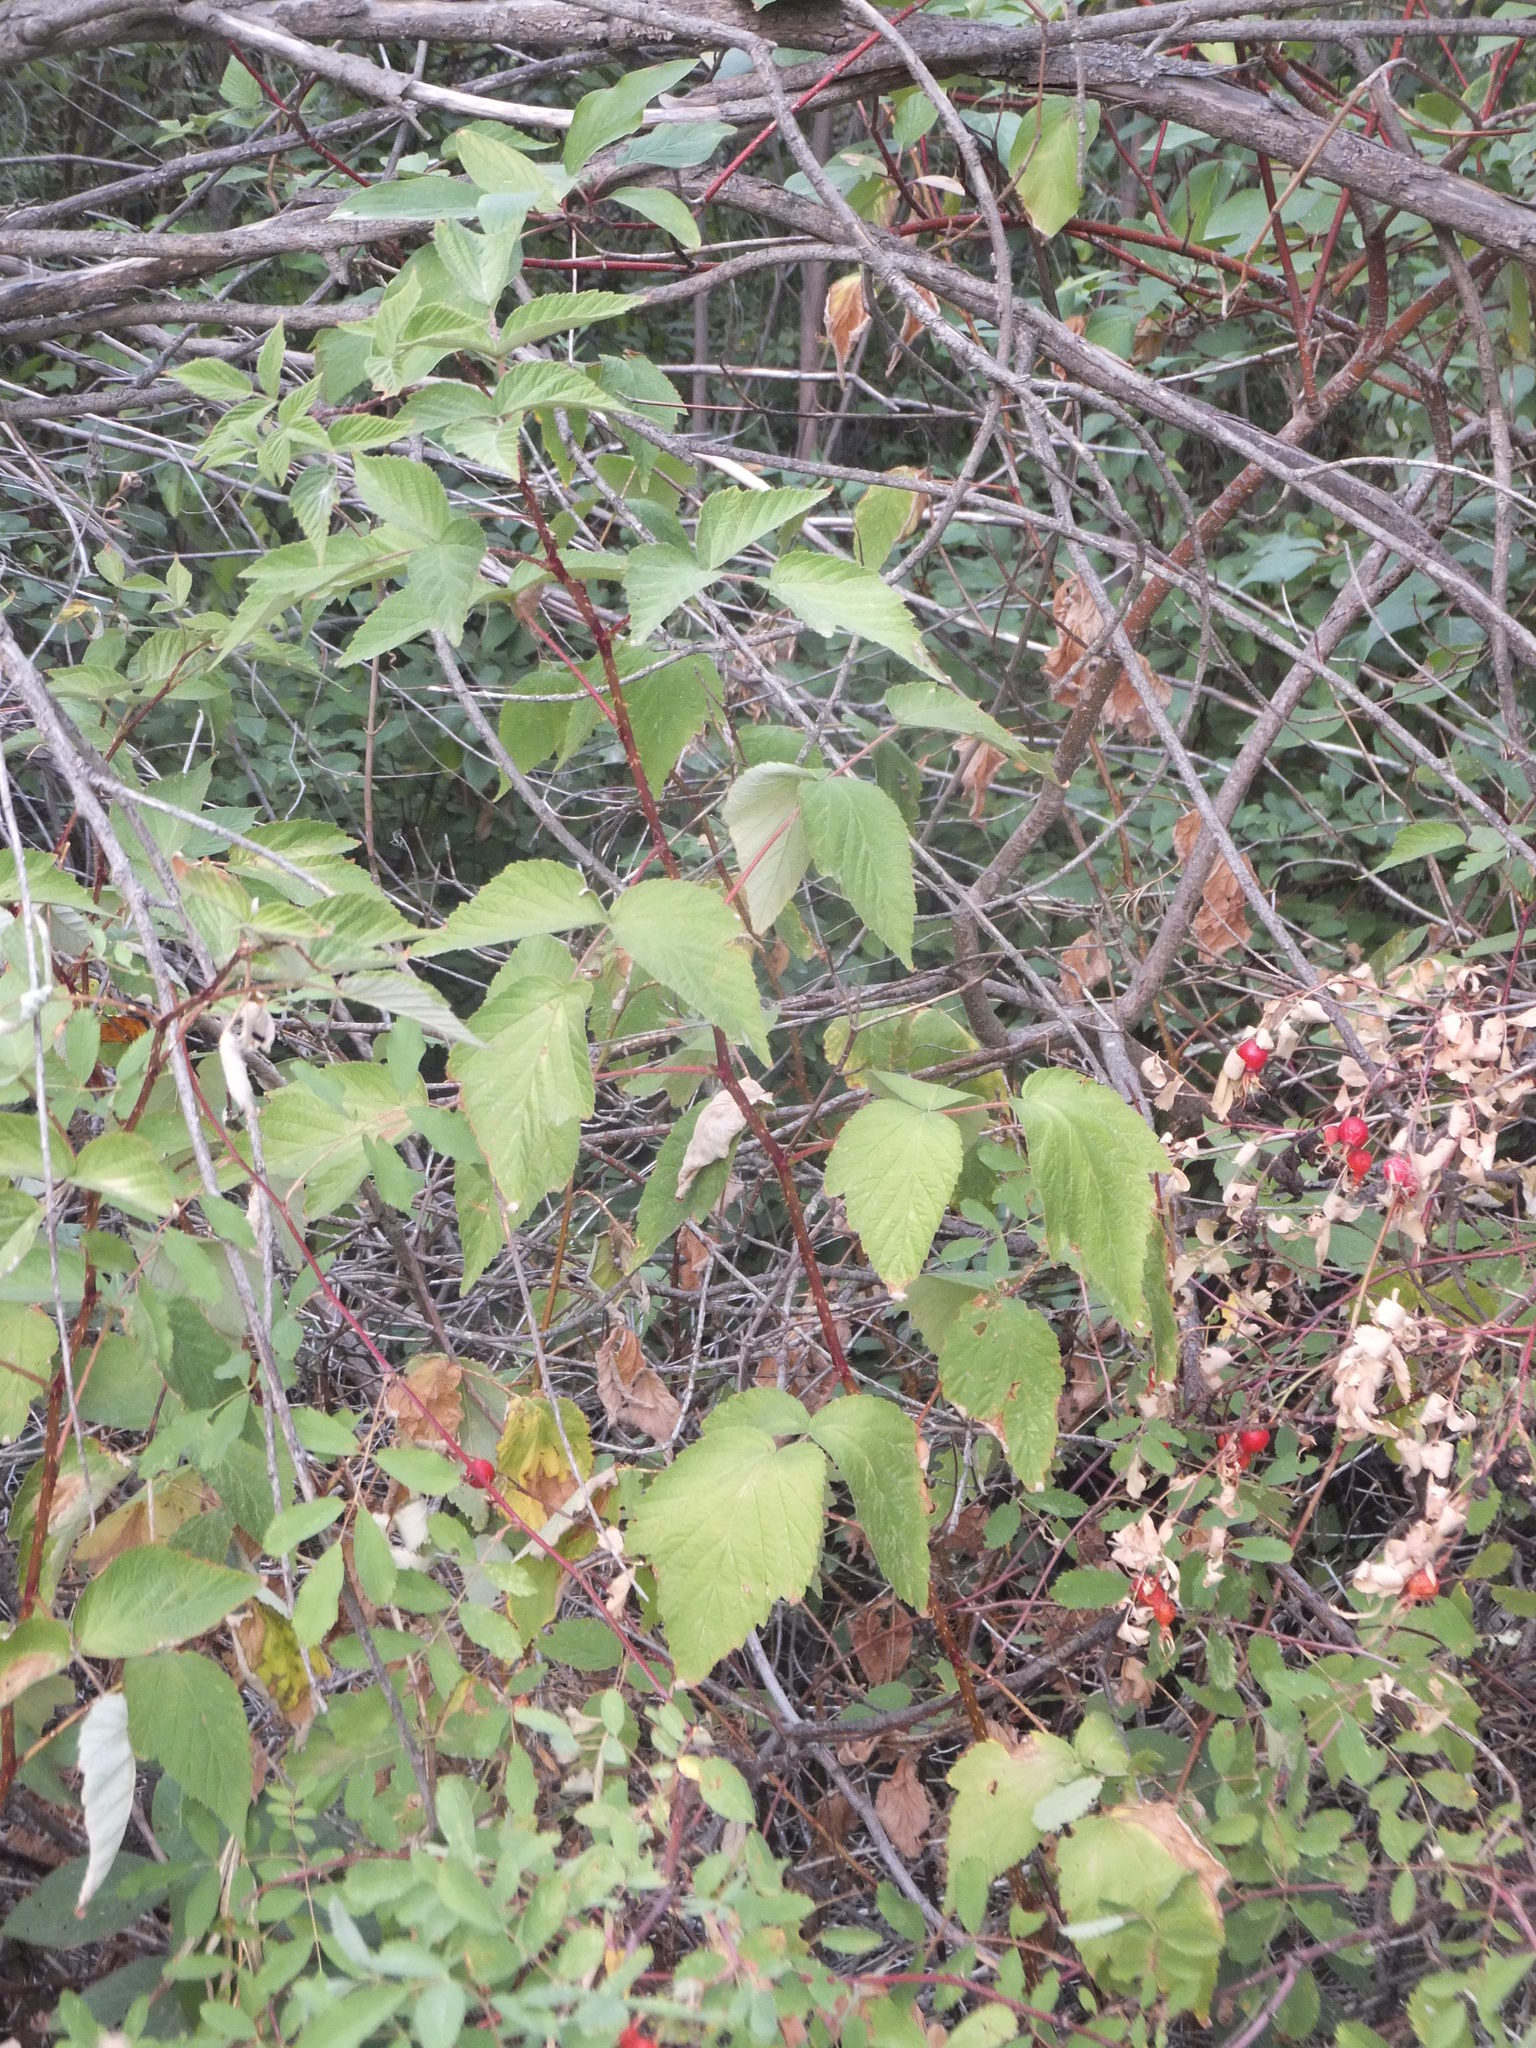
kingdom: Plantae
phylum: Tracheophyta
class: Magnoliopsida
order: Rosales
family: Rosaceae
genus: Rubus
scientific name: Rubus idaeus
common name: Raspberry
